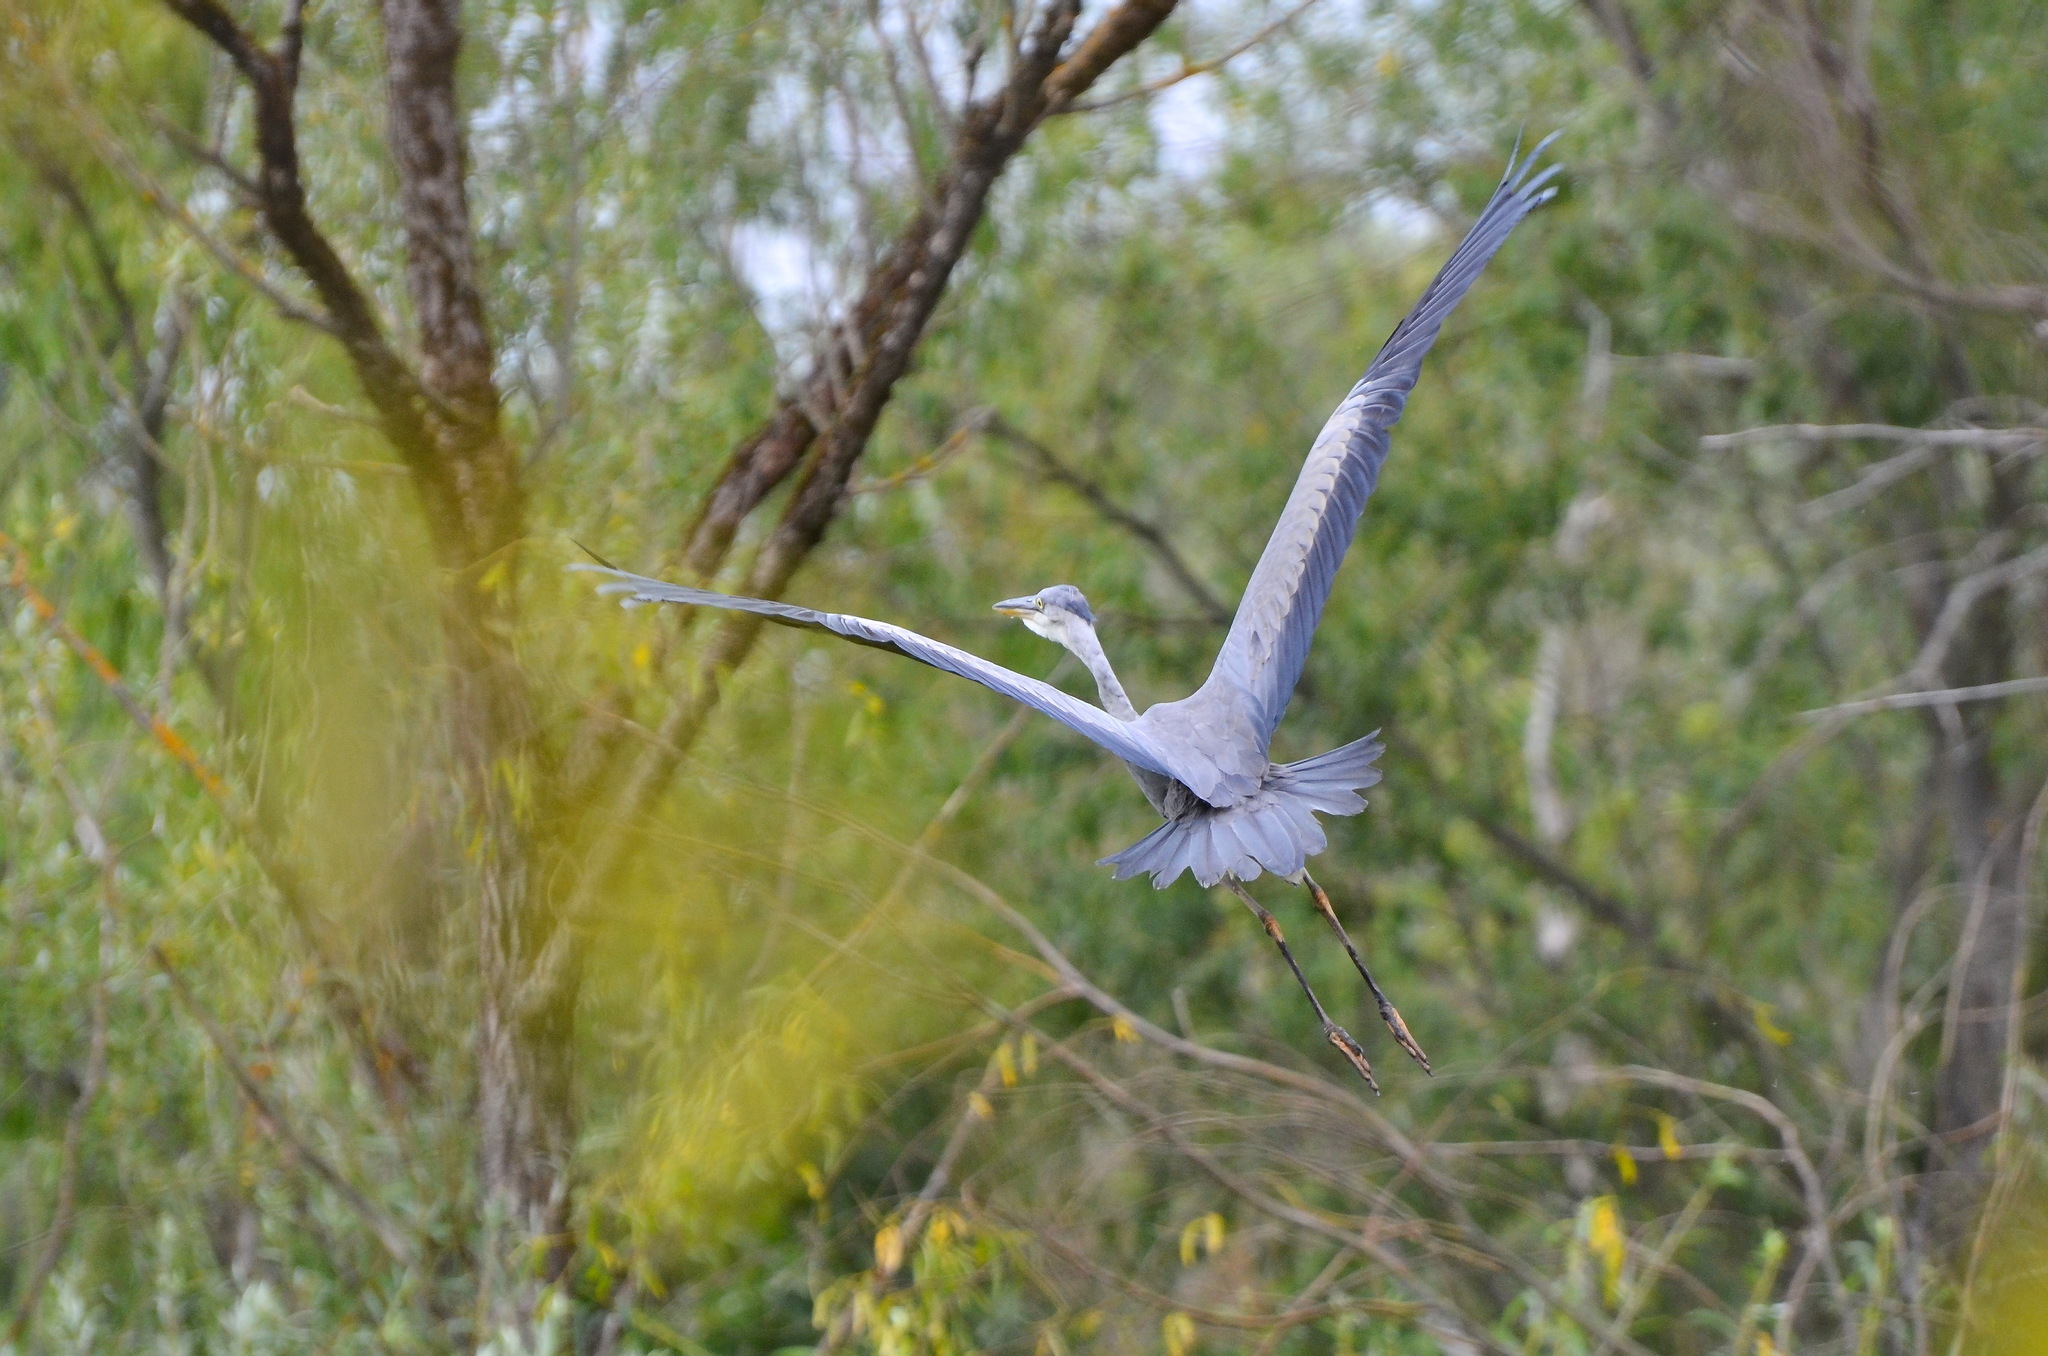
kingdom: Animalia
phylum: Chordata
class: Aves
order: Pelecaniformes
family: Ardeidae
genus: Ardea
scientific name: Ardea cinerea
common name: Grey heron
